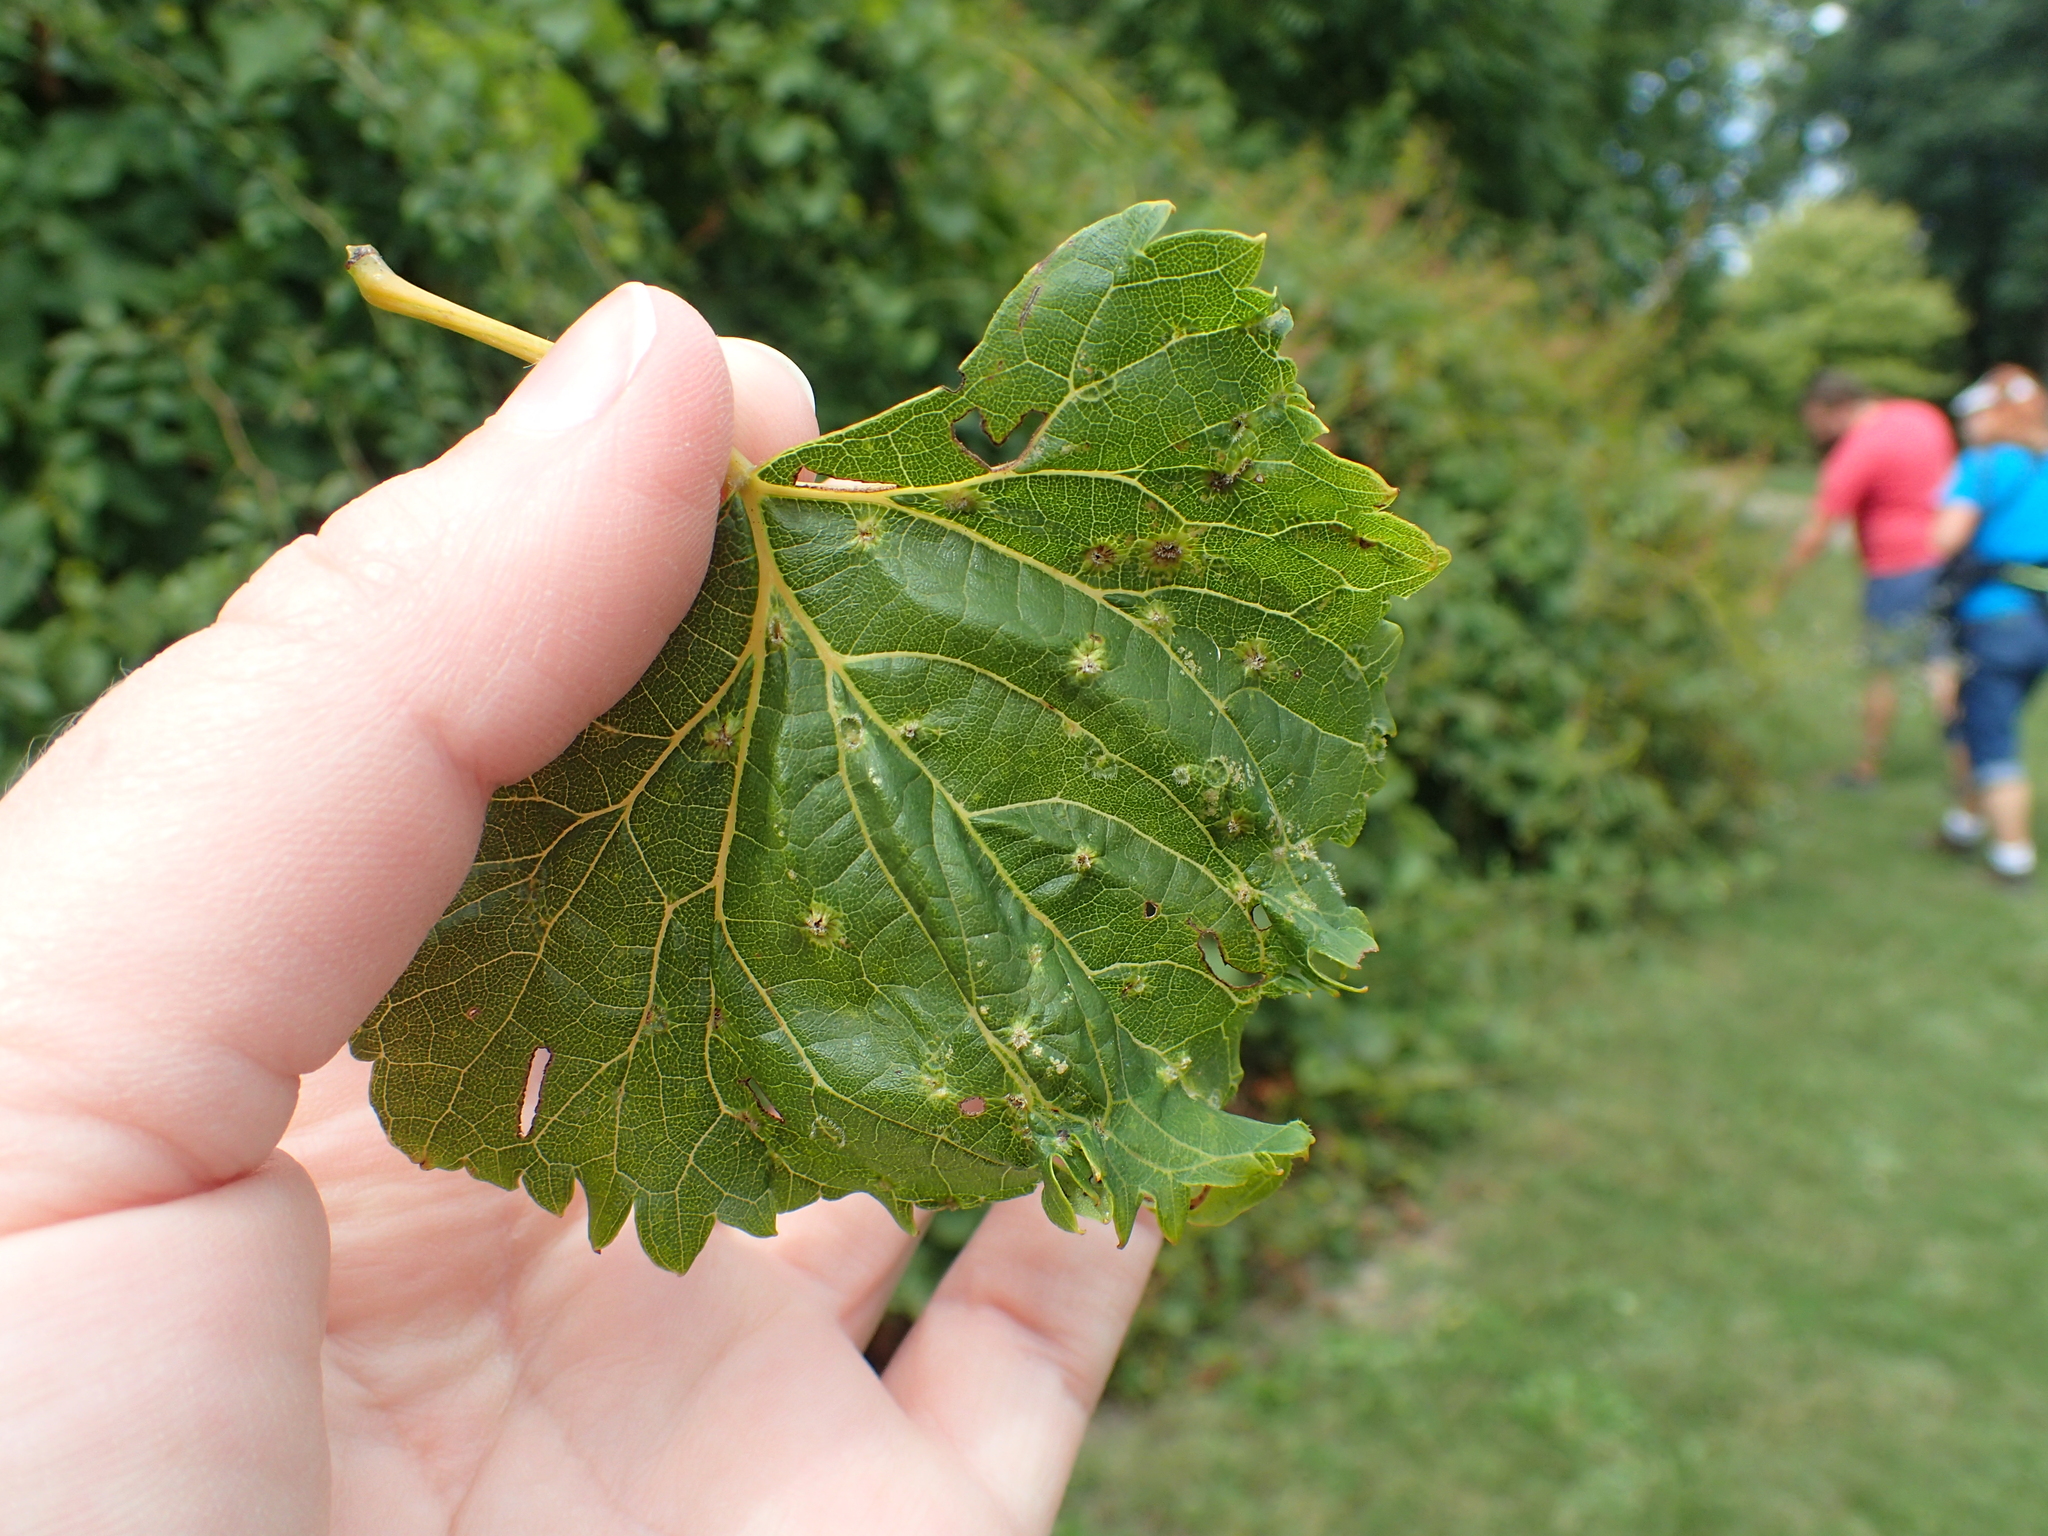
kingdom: Animalia
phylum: Arthropoda
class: Insecta
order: Hemiptera
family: Phylloxeridae
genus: Daktulosphaira
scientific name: Daktulosphaira vitifoliae
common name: Grape phylloxera
